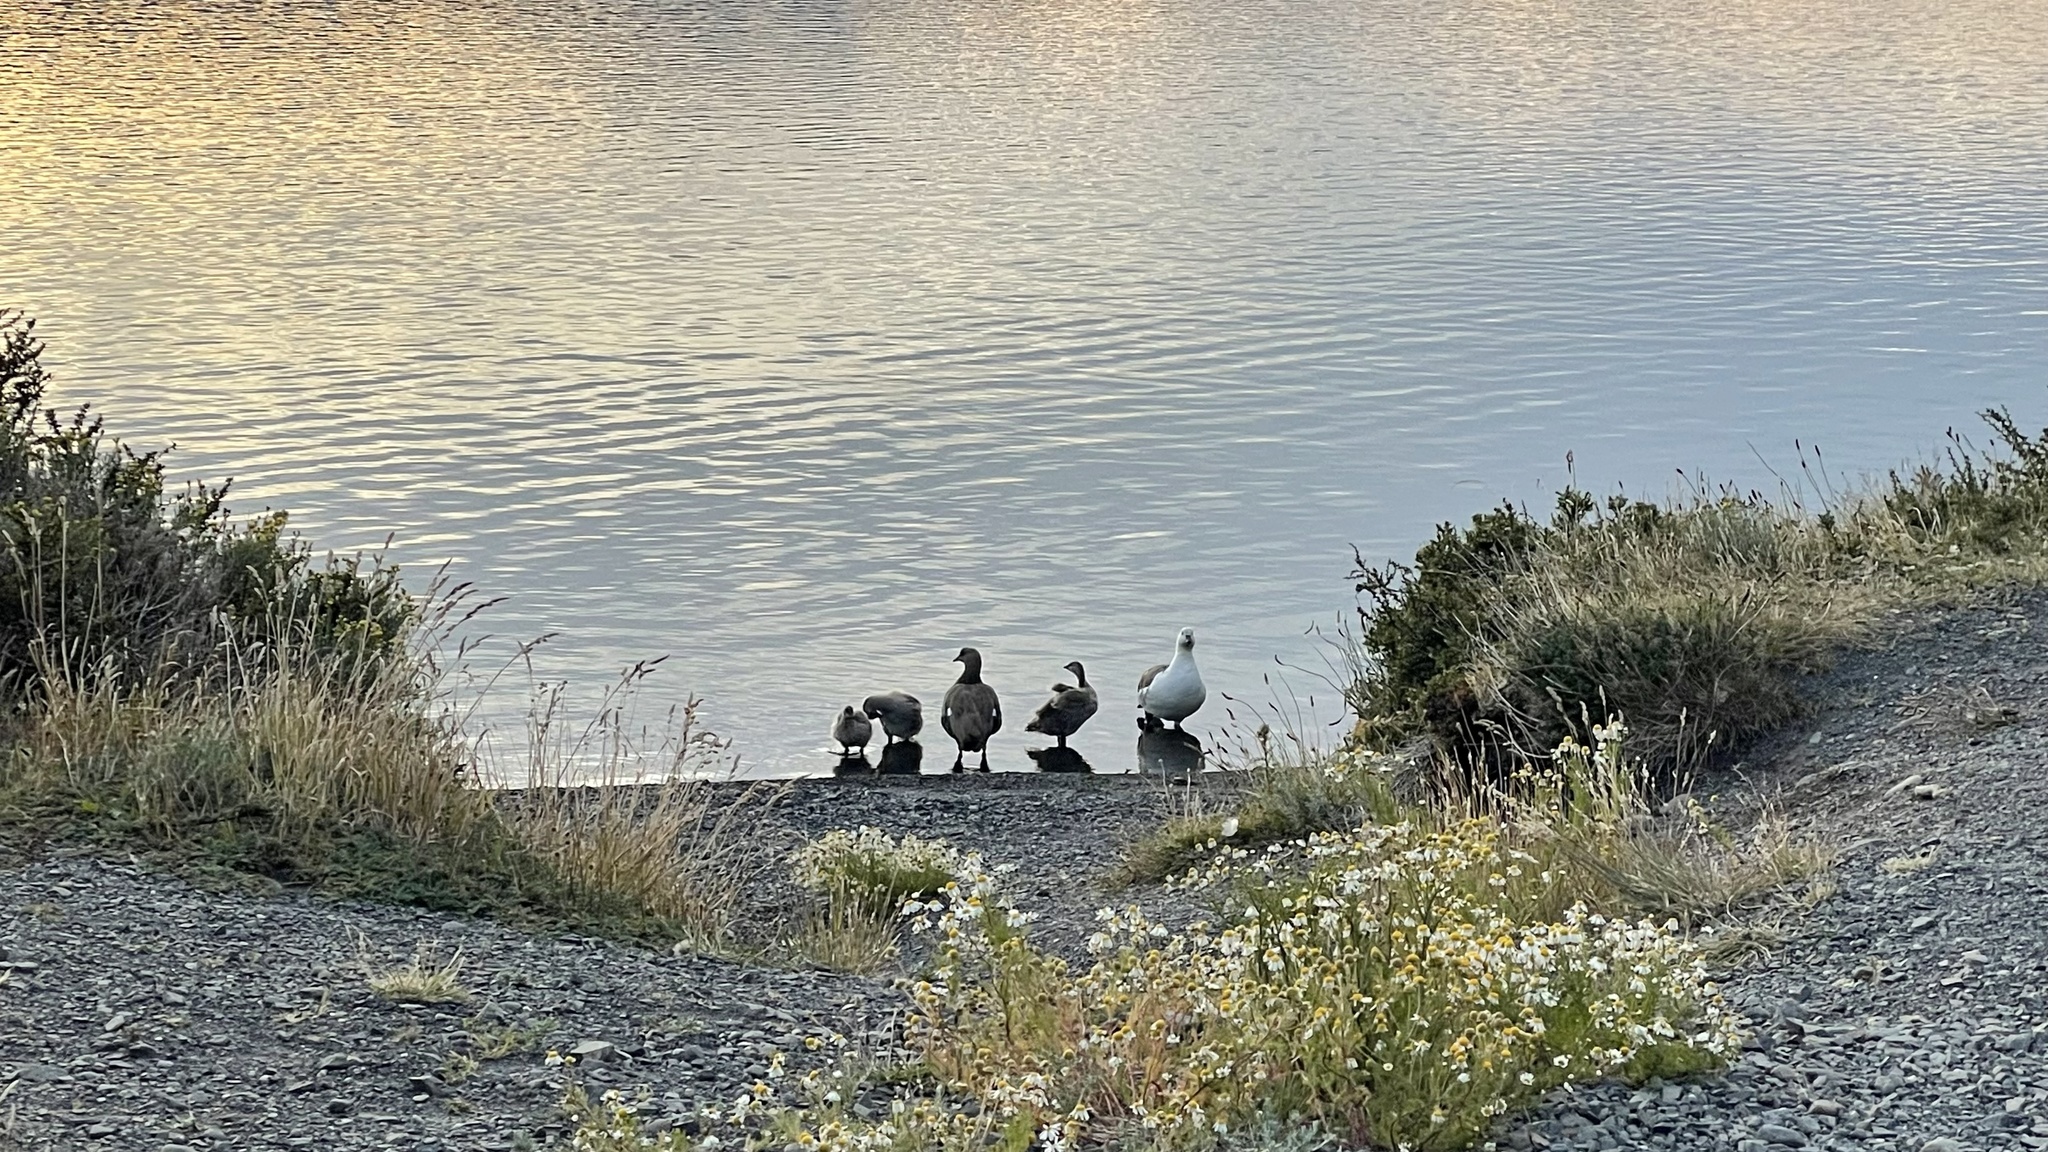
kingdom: Animalia
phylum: Chordata
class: Aves
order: Anseriformes
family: Anatidae
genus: Chloephaga
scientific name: Chloephaga picta
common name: Upland goose
